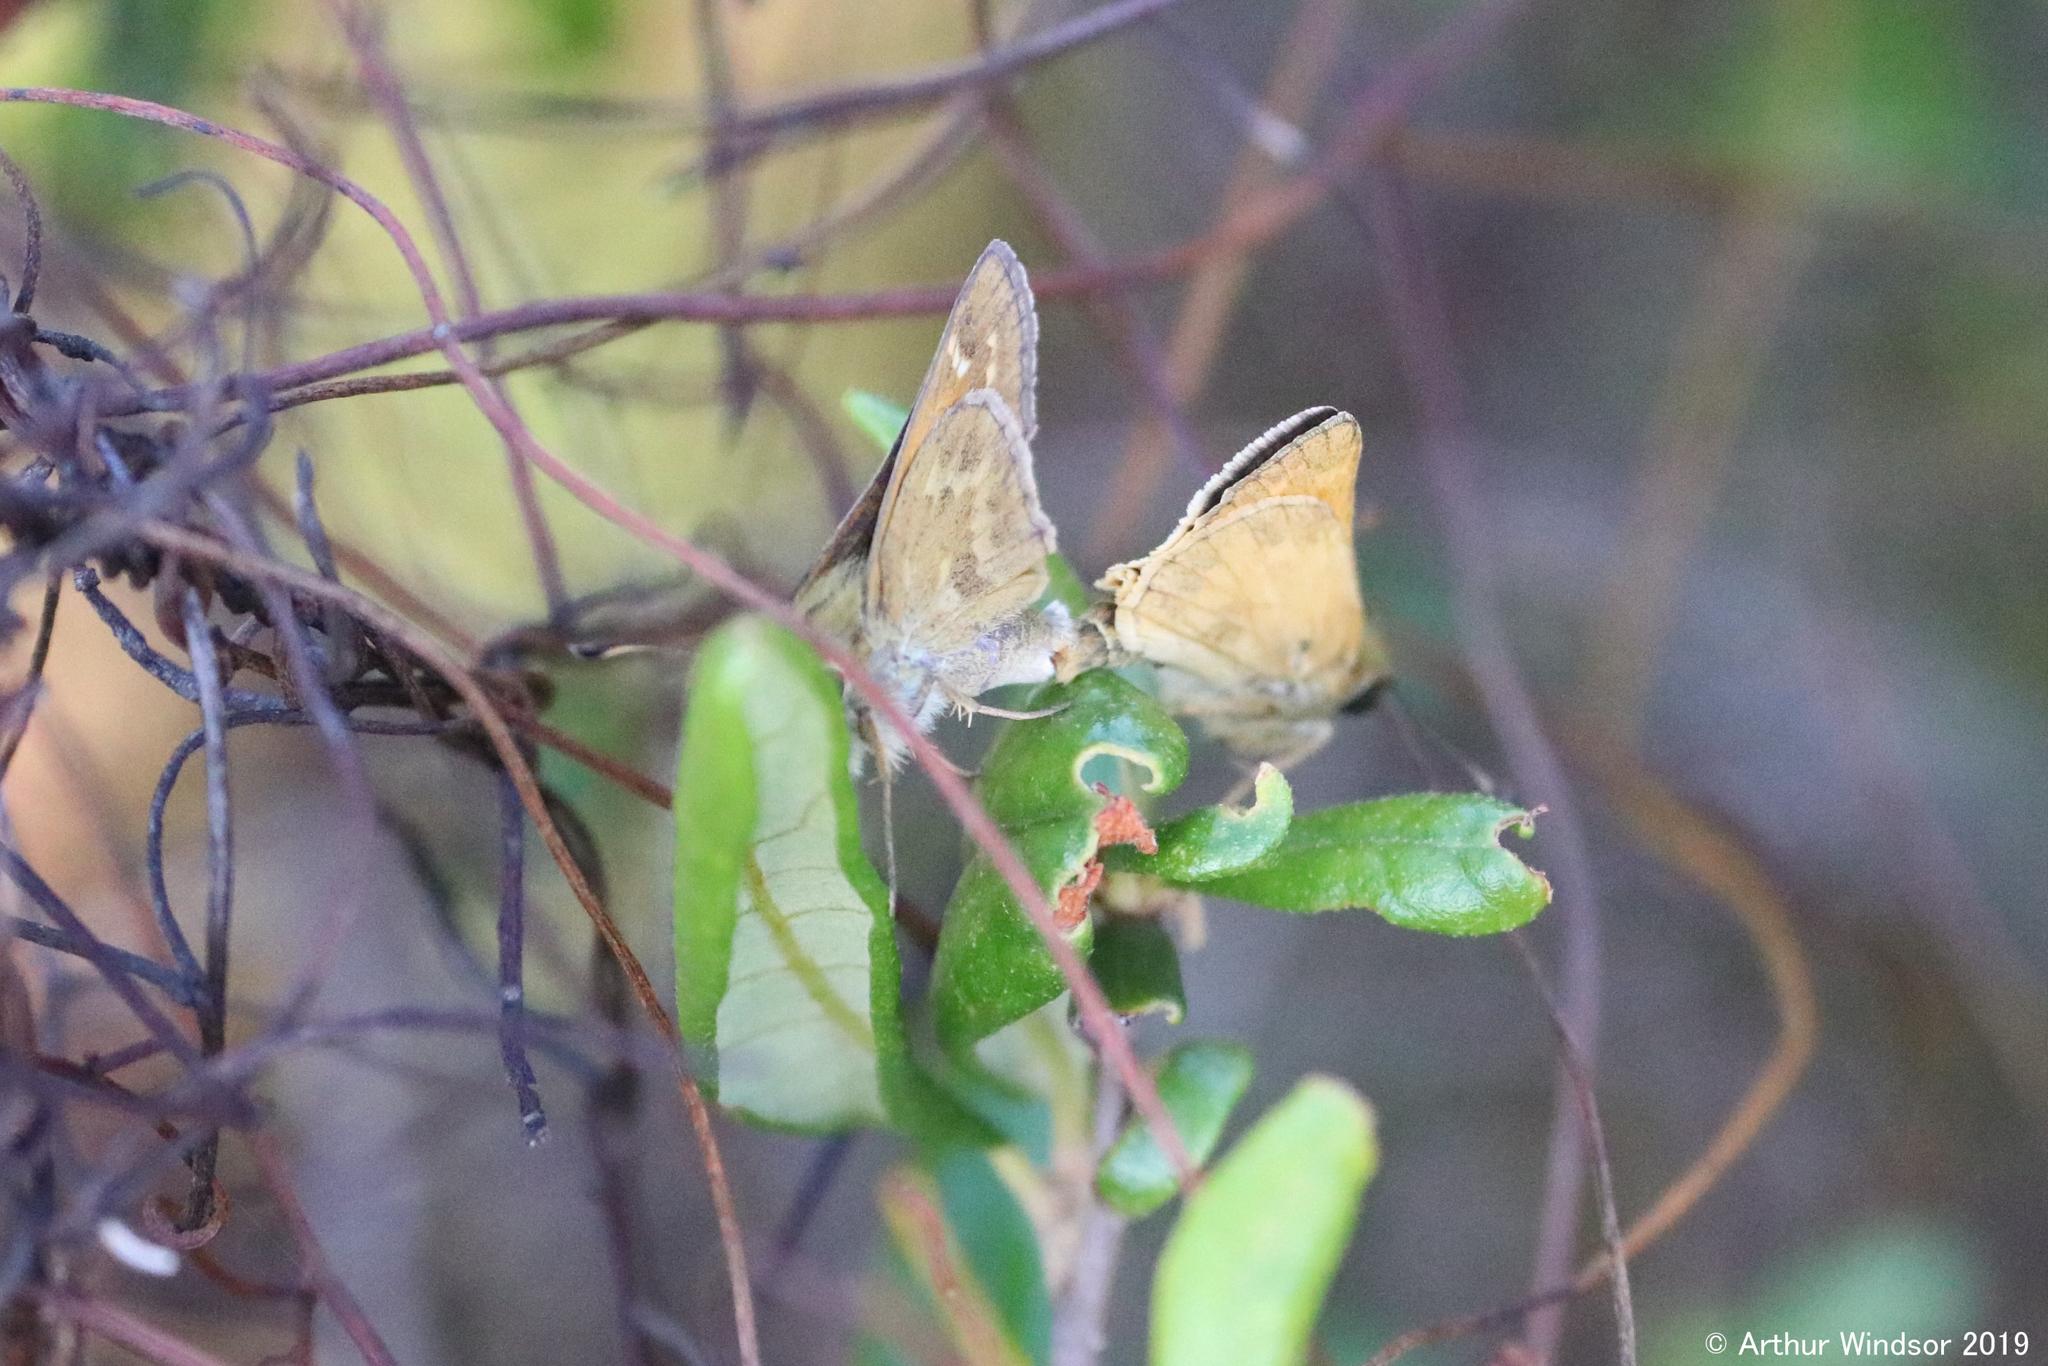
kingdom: Animalia
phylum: Arthropoda
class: Insecta
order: Lepidoptera
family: Hesperiidae
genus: Atalopedes
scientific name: Atalopedes
